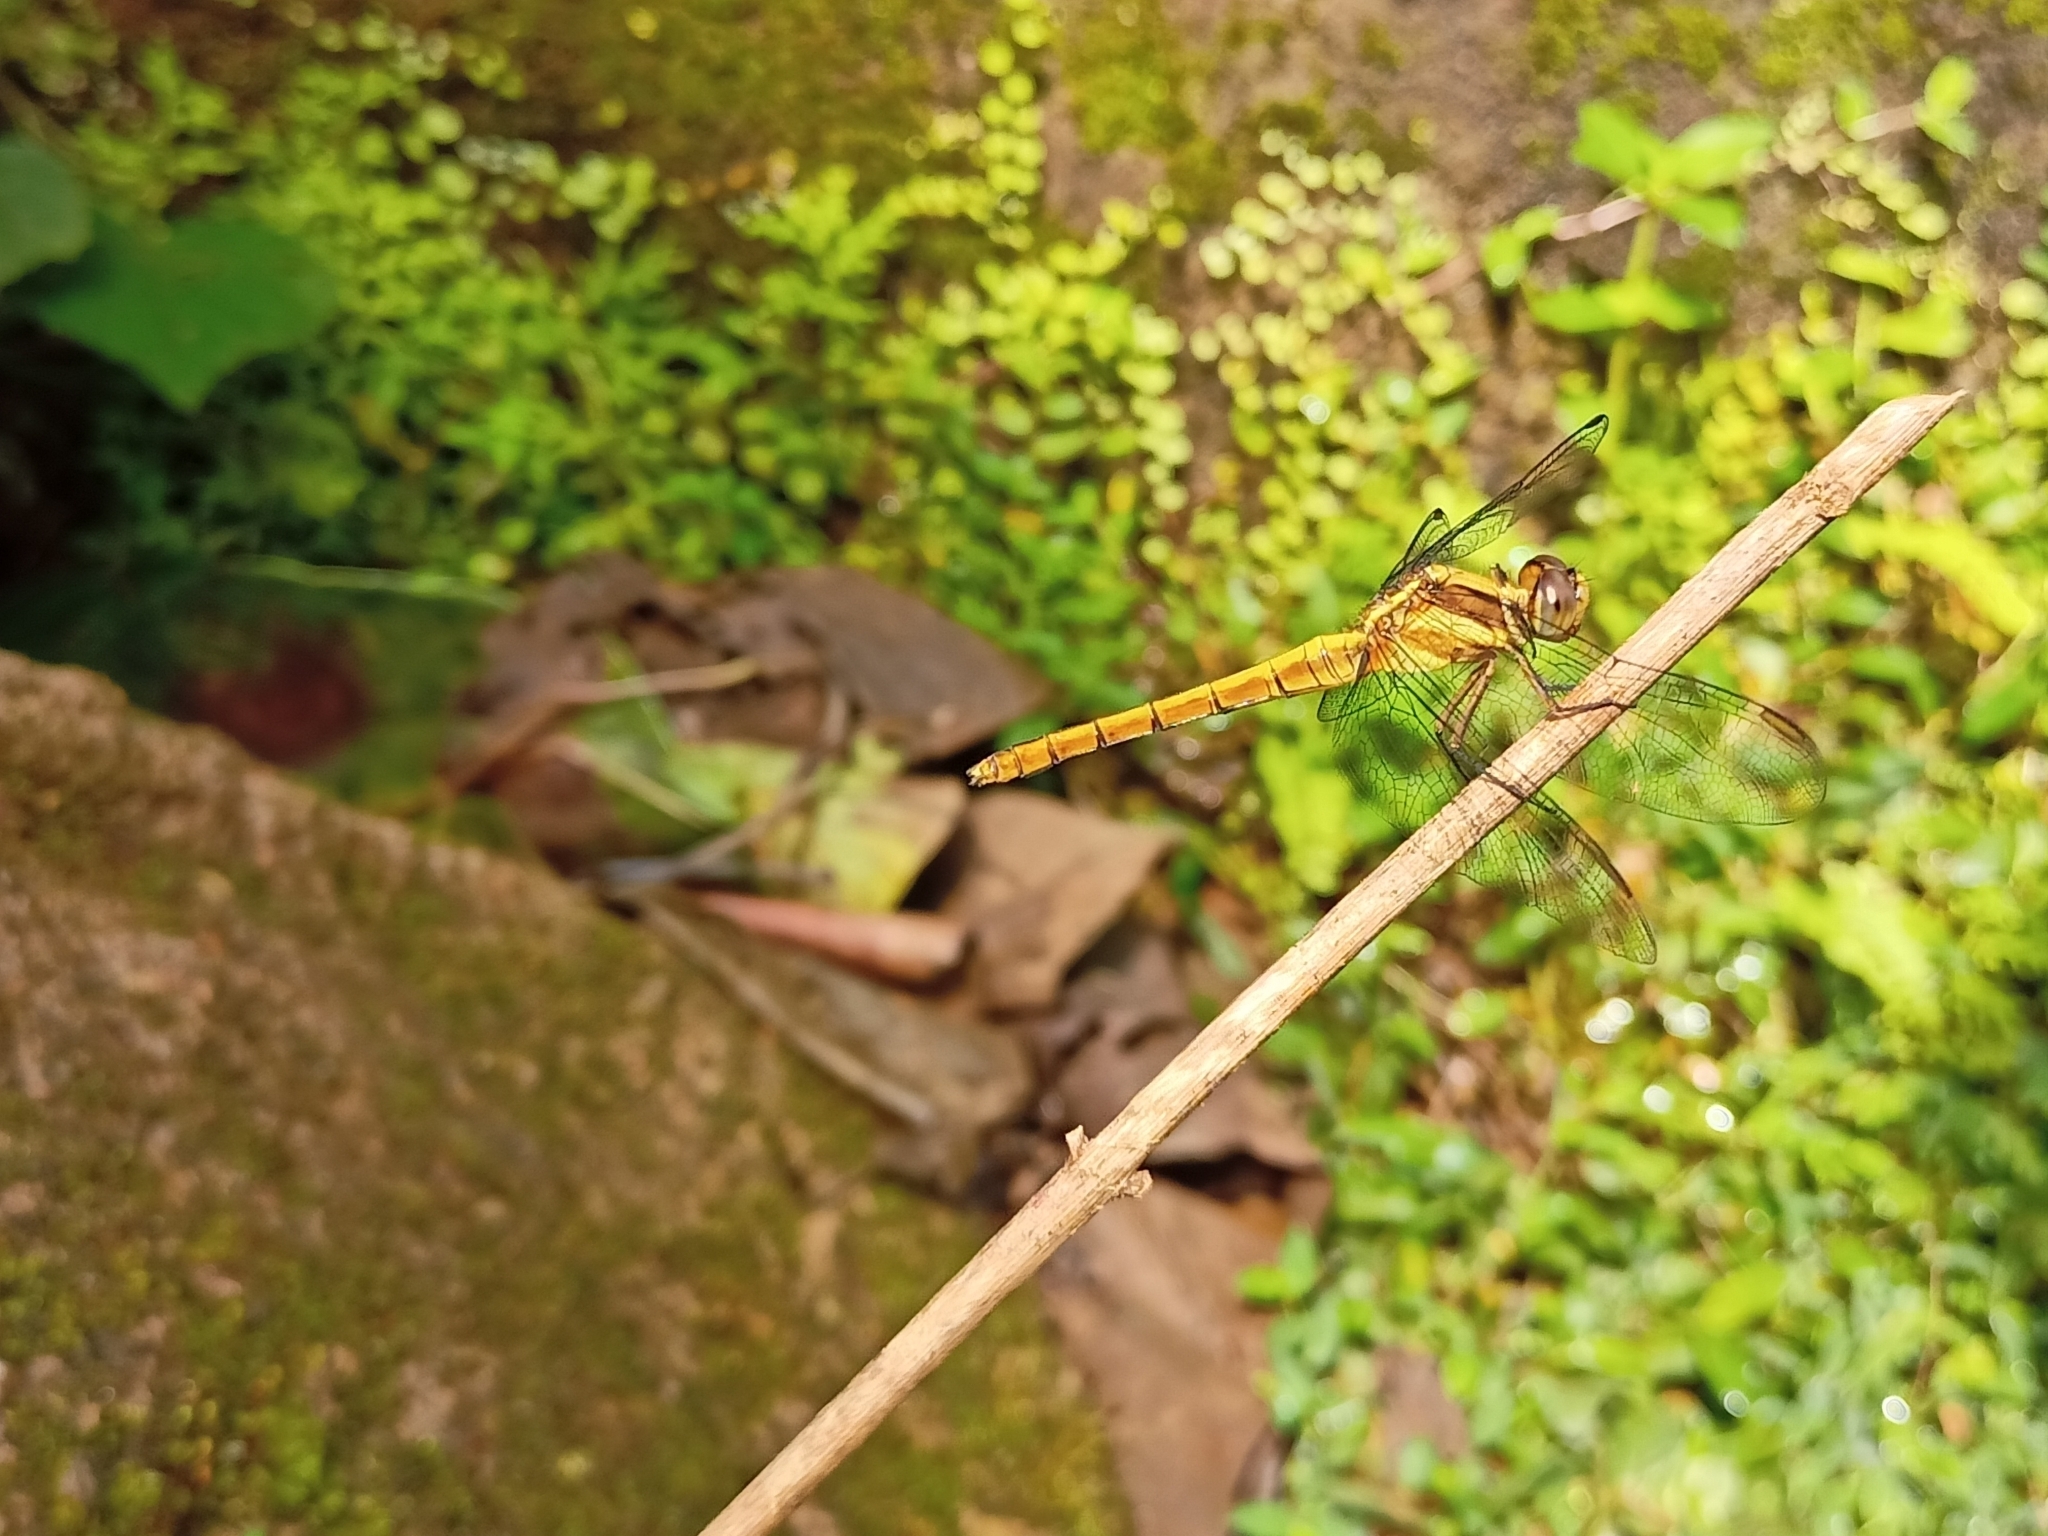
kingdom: Animalia
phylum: Arthropoda
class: Insecta
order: Odonata
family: Libellulidae
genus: Orthetrum
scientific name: Orthetrum luzonicum
